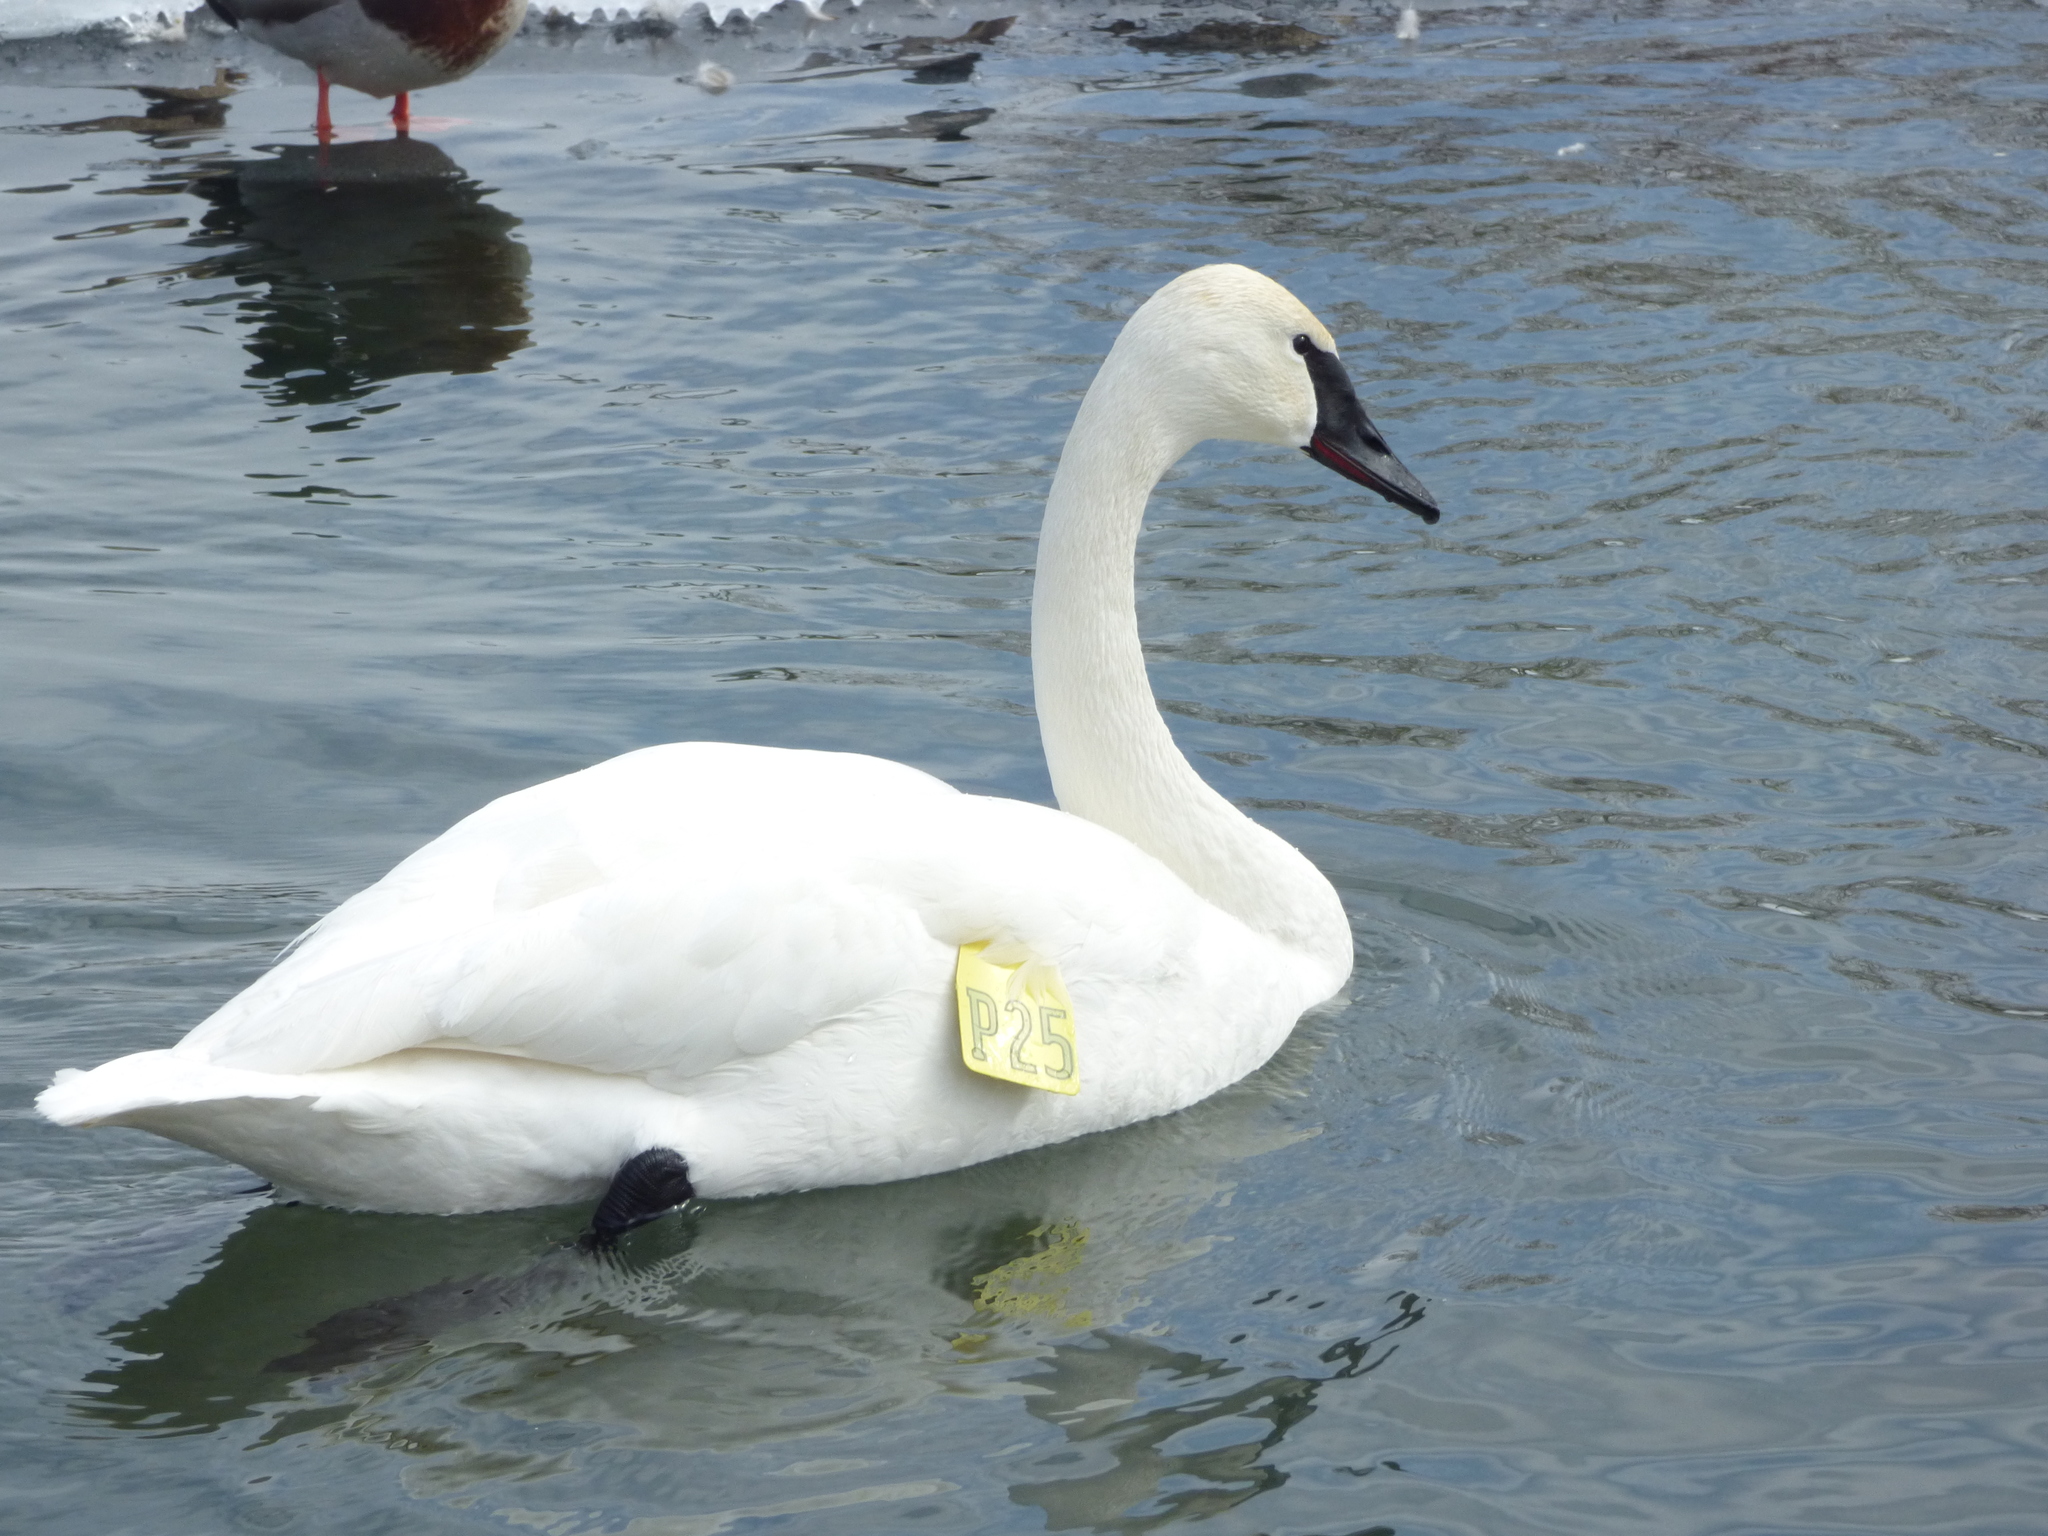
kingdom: Animalia
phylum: Chordata
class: Aves
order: Anseriformes
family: Anatidae
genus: Cygnus
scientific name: Cygnus buccinator
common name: Trumpeter swan
